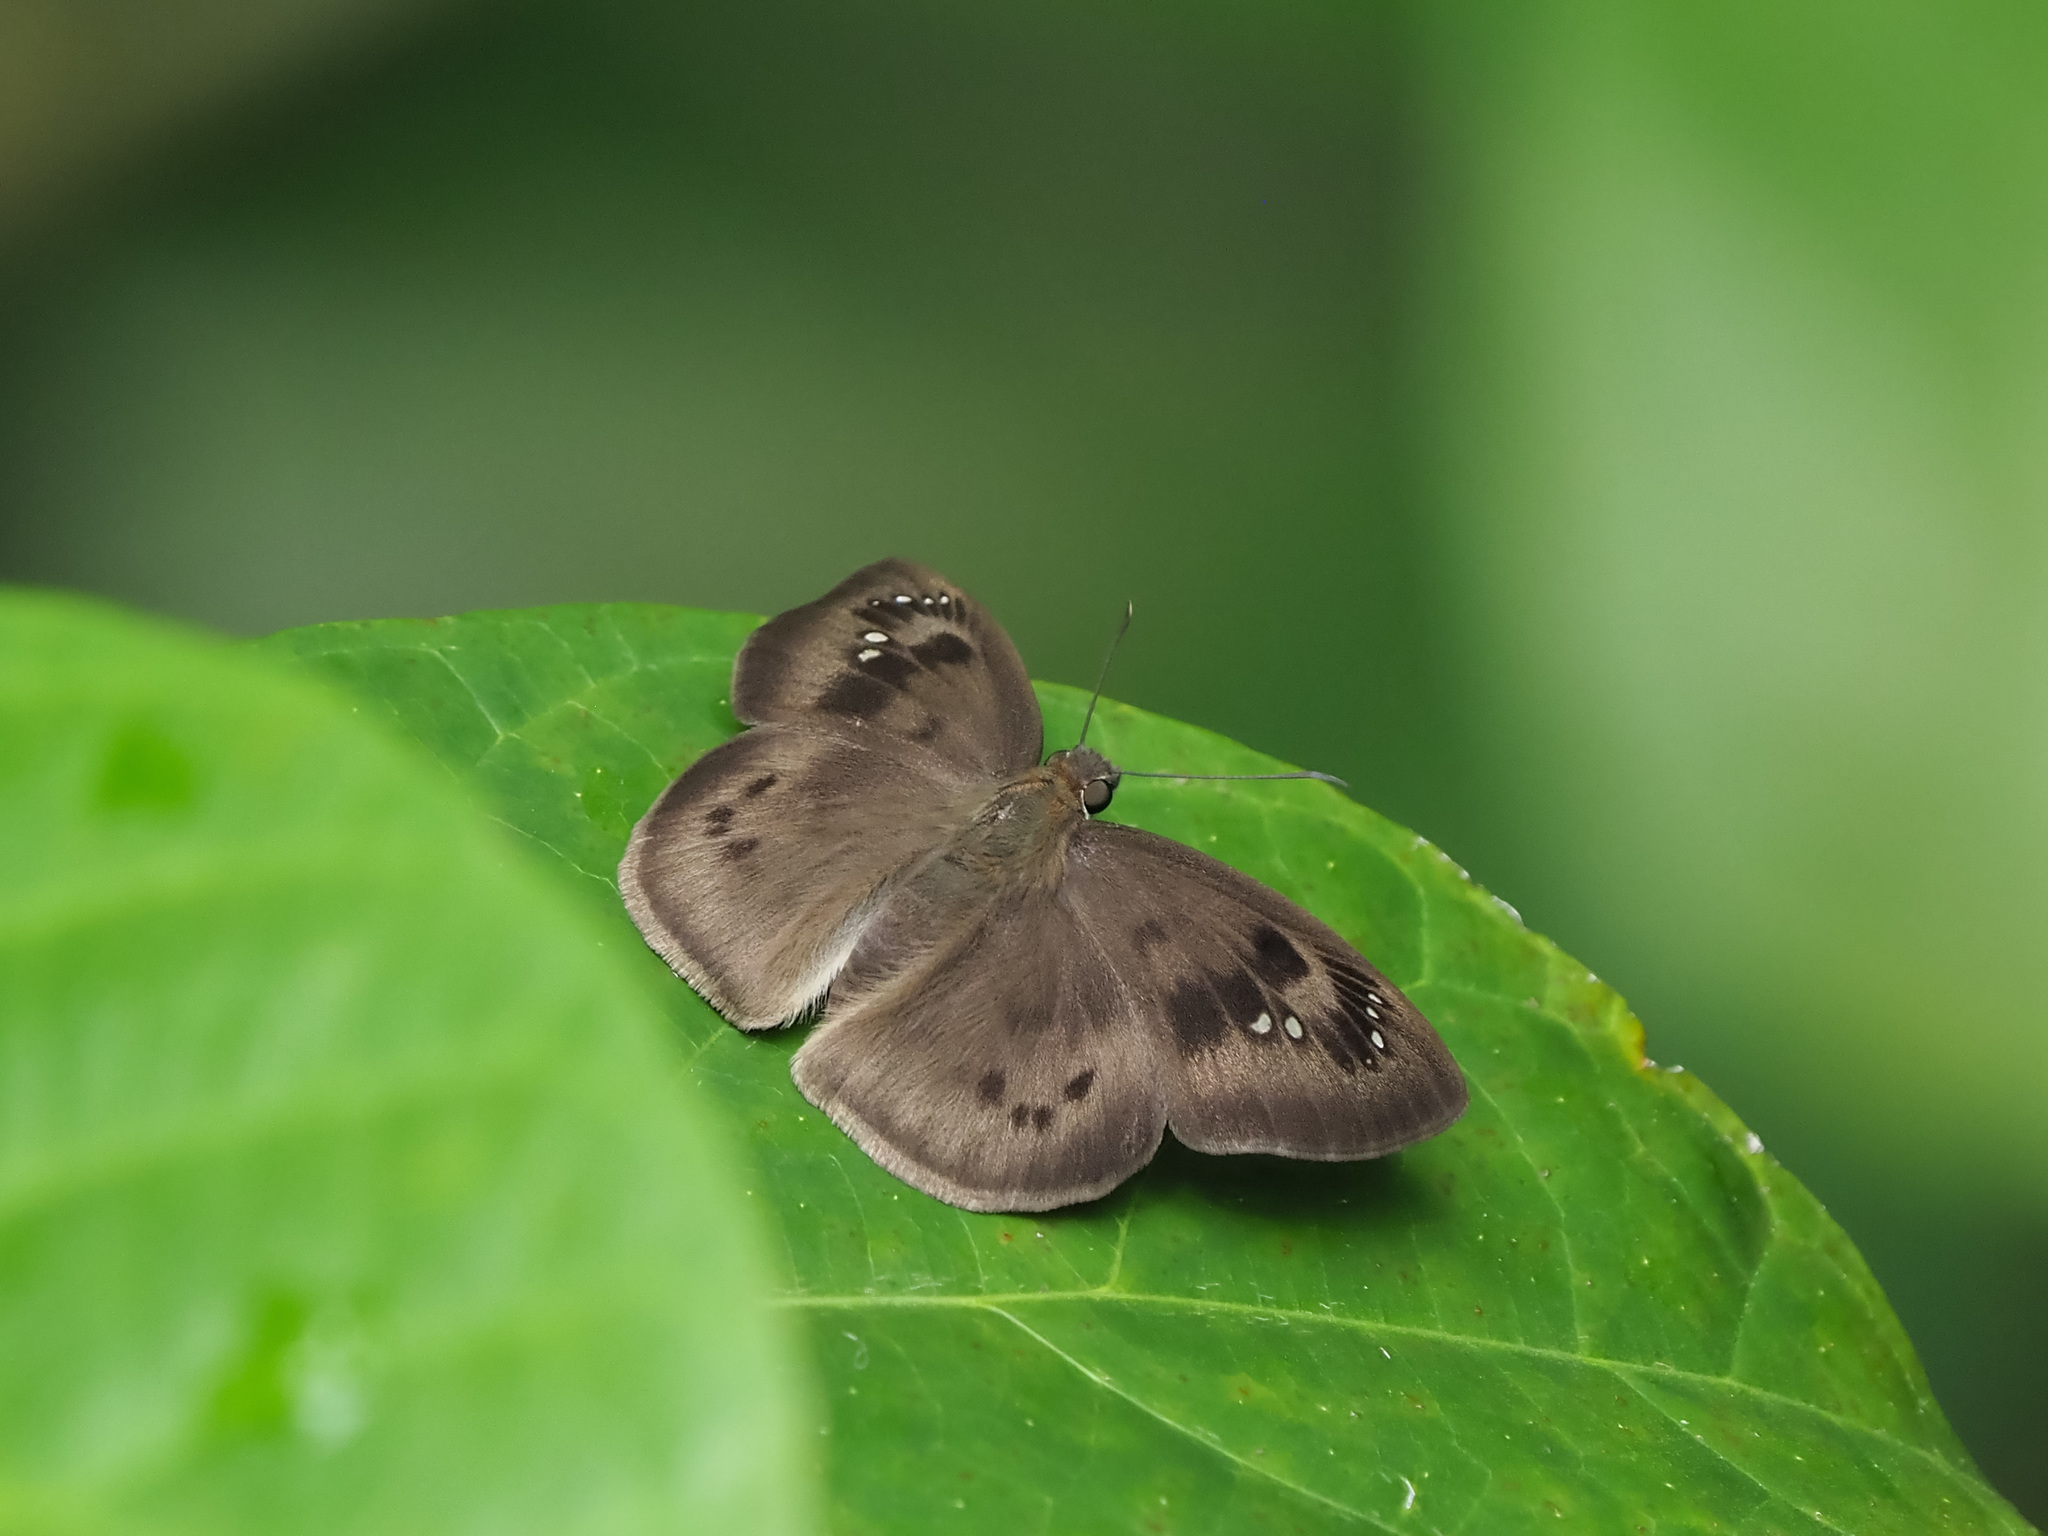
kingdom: Animalia
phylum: Arthropoda
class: Insecta
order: Lepidoptera
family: Hesperiidae
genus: Tagiades
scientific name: Tagiades japetus
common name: Pied flat
